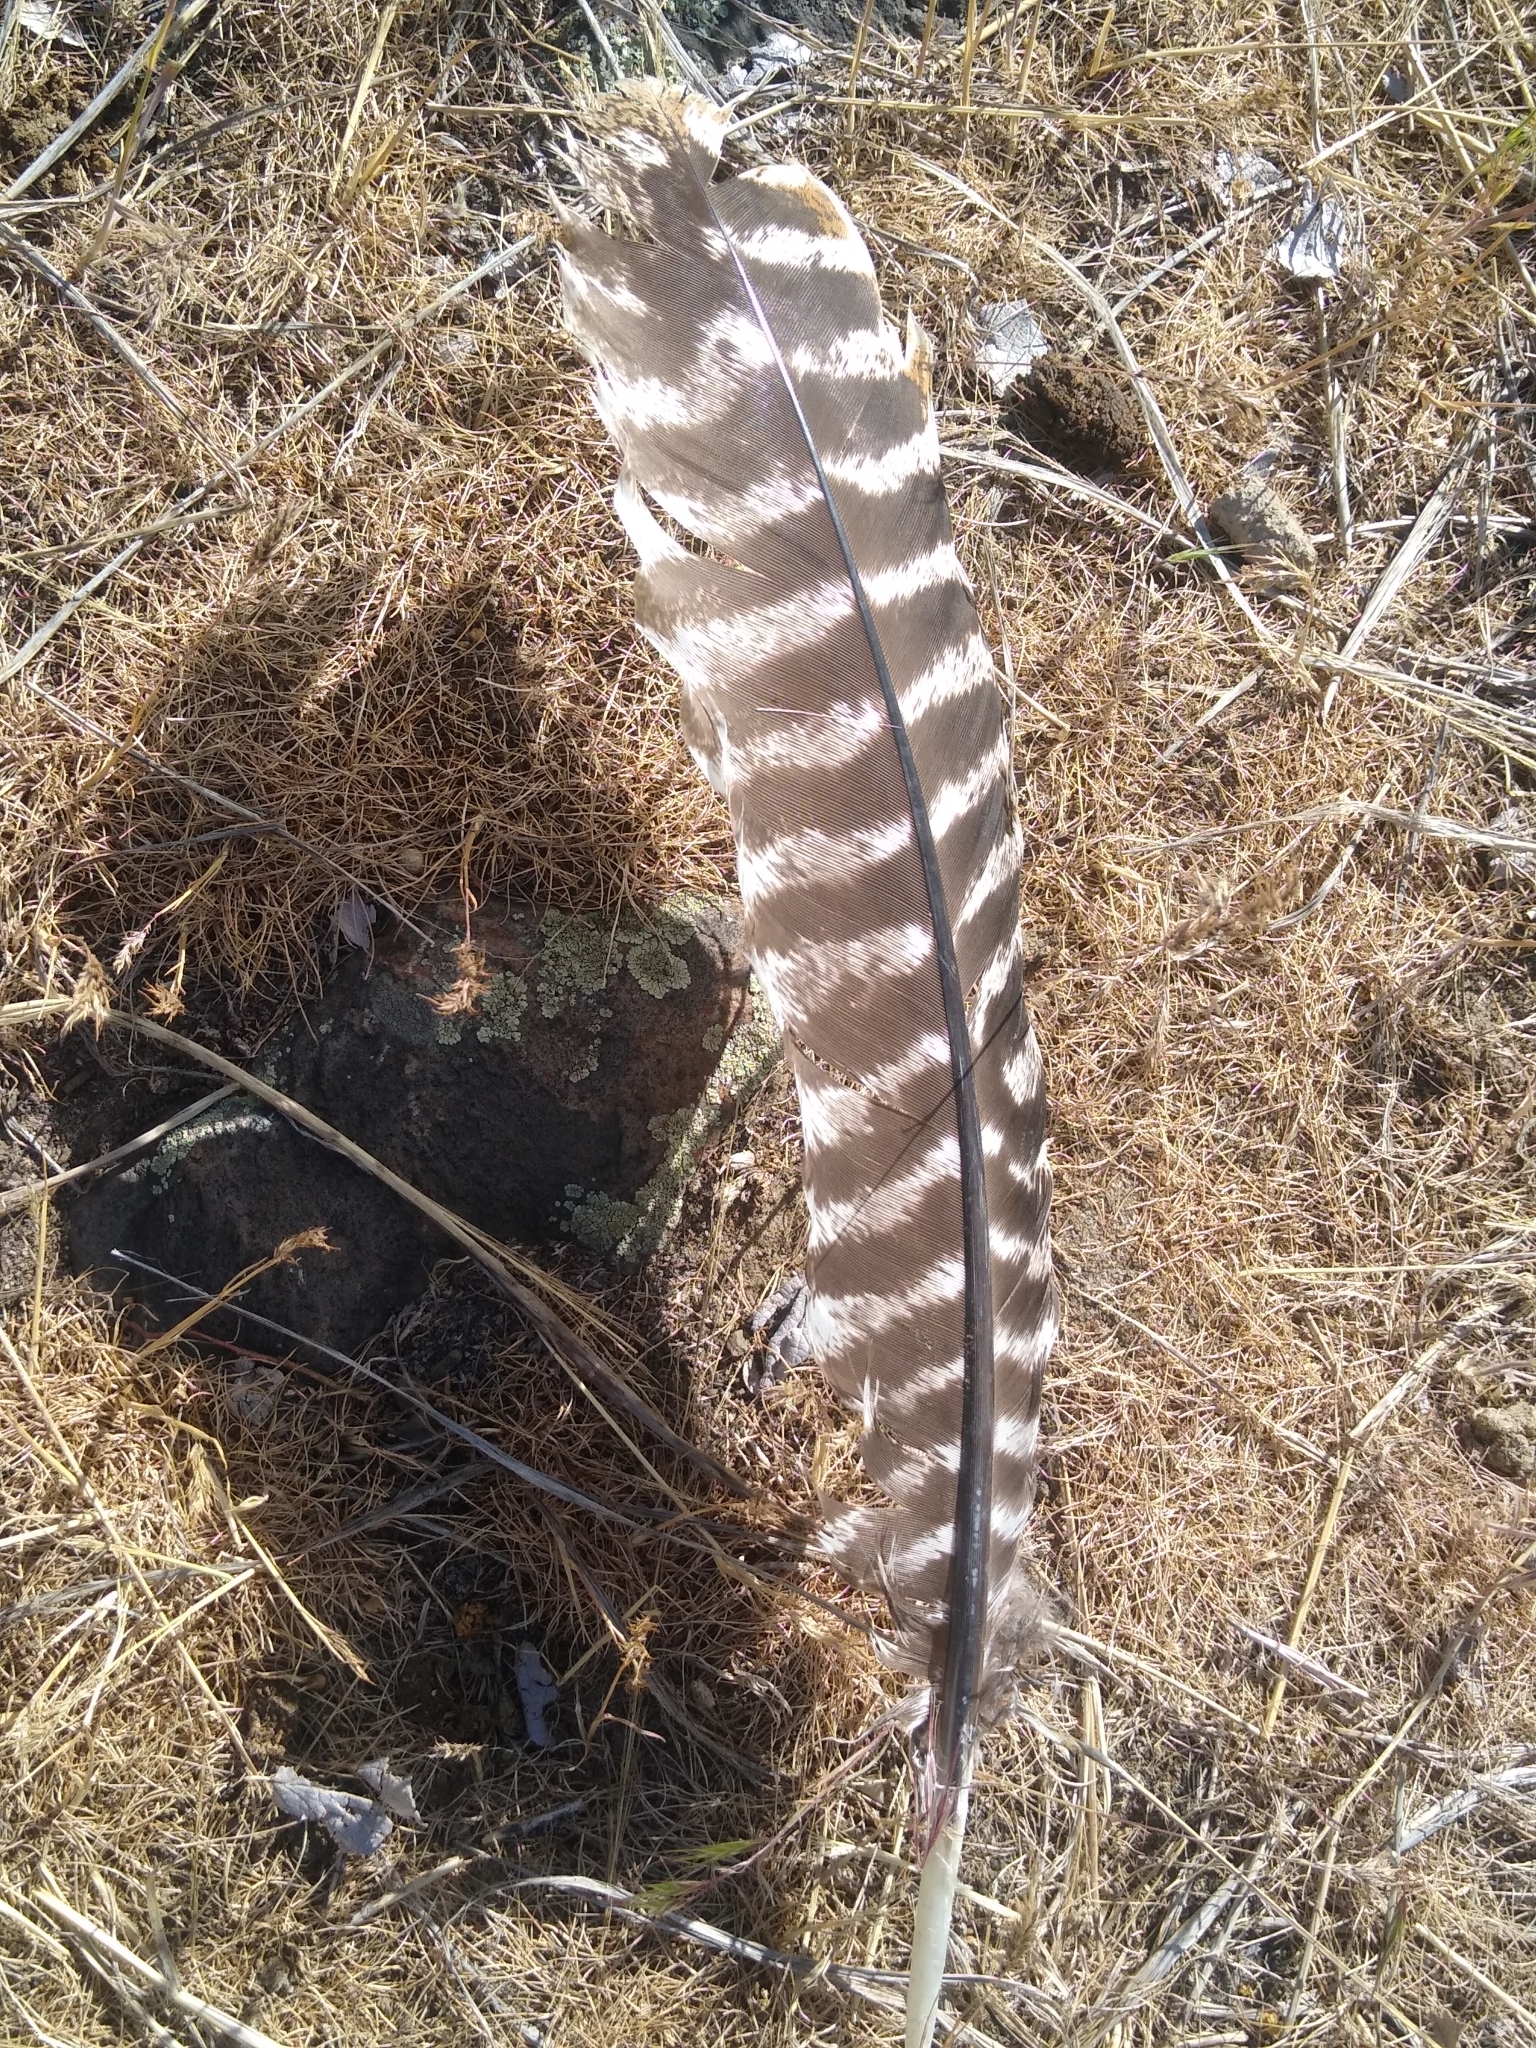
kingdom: Animalia
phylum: Chordata
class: Aves
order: Galliformes
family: Phasianidae
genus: Meleagris
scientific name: Meleagris gallopavo
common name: Wild turkey
